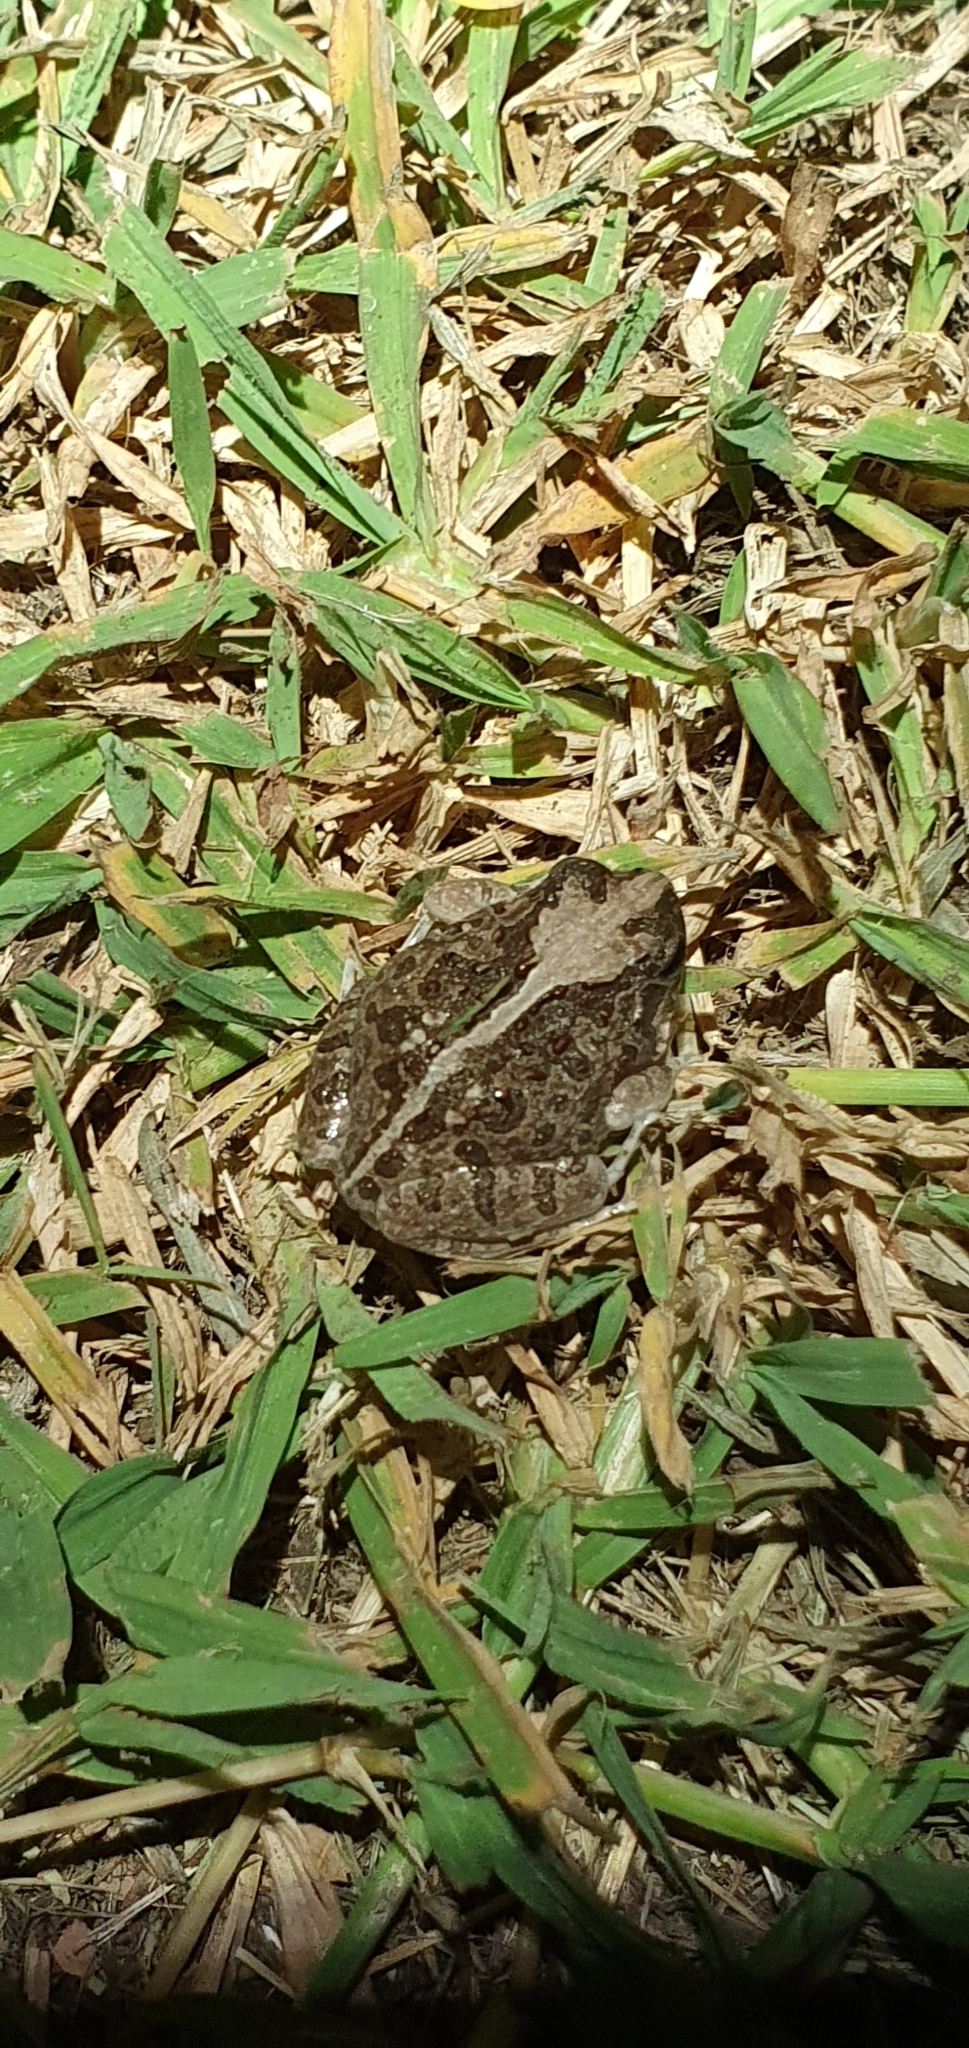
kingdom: Animalia
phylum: Chordata
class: Amphibia
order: Anura
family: Limnodynastidae
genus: Platyplectrum
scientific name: Platyplectrum ornatum
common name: Ornate burrowing frog
